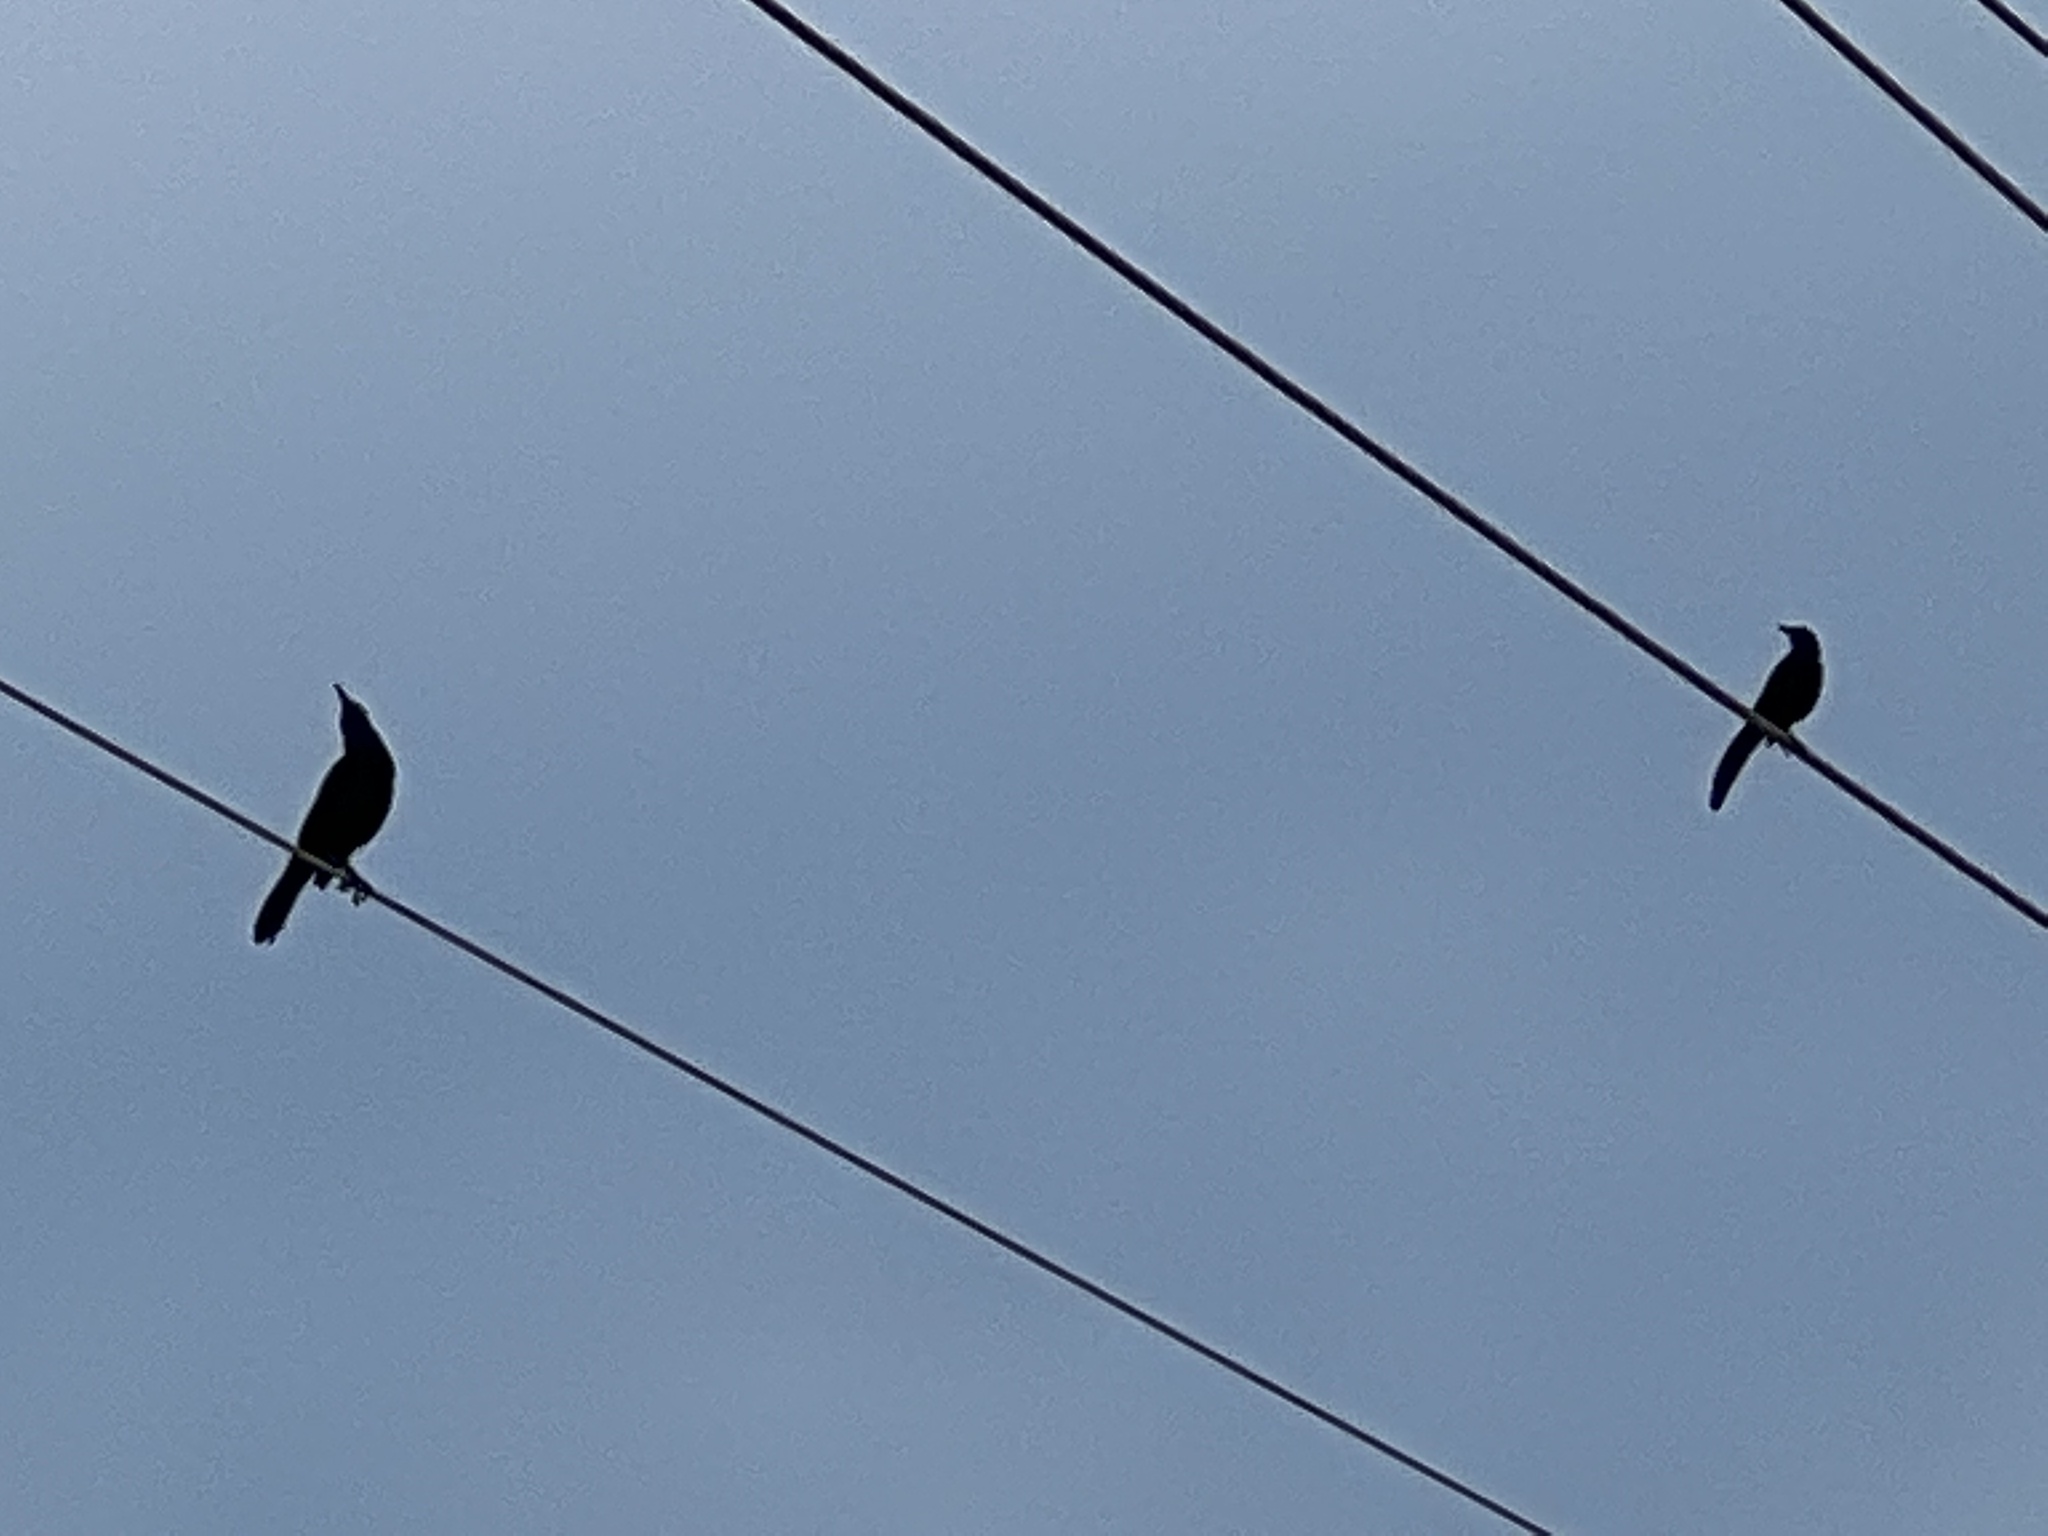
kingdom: Animalia
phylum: Chordata
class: Aves
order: Passeriformes
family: Icteridae
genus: Quiscalus
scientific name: Quiscalus mexicanus
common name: Great-tailed grackle
